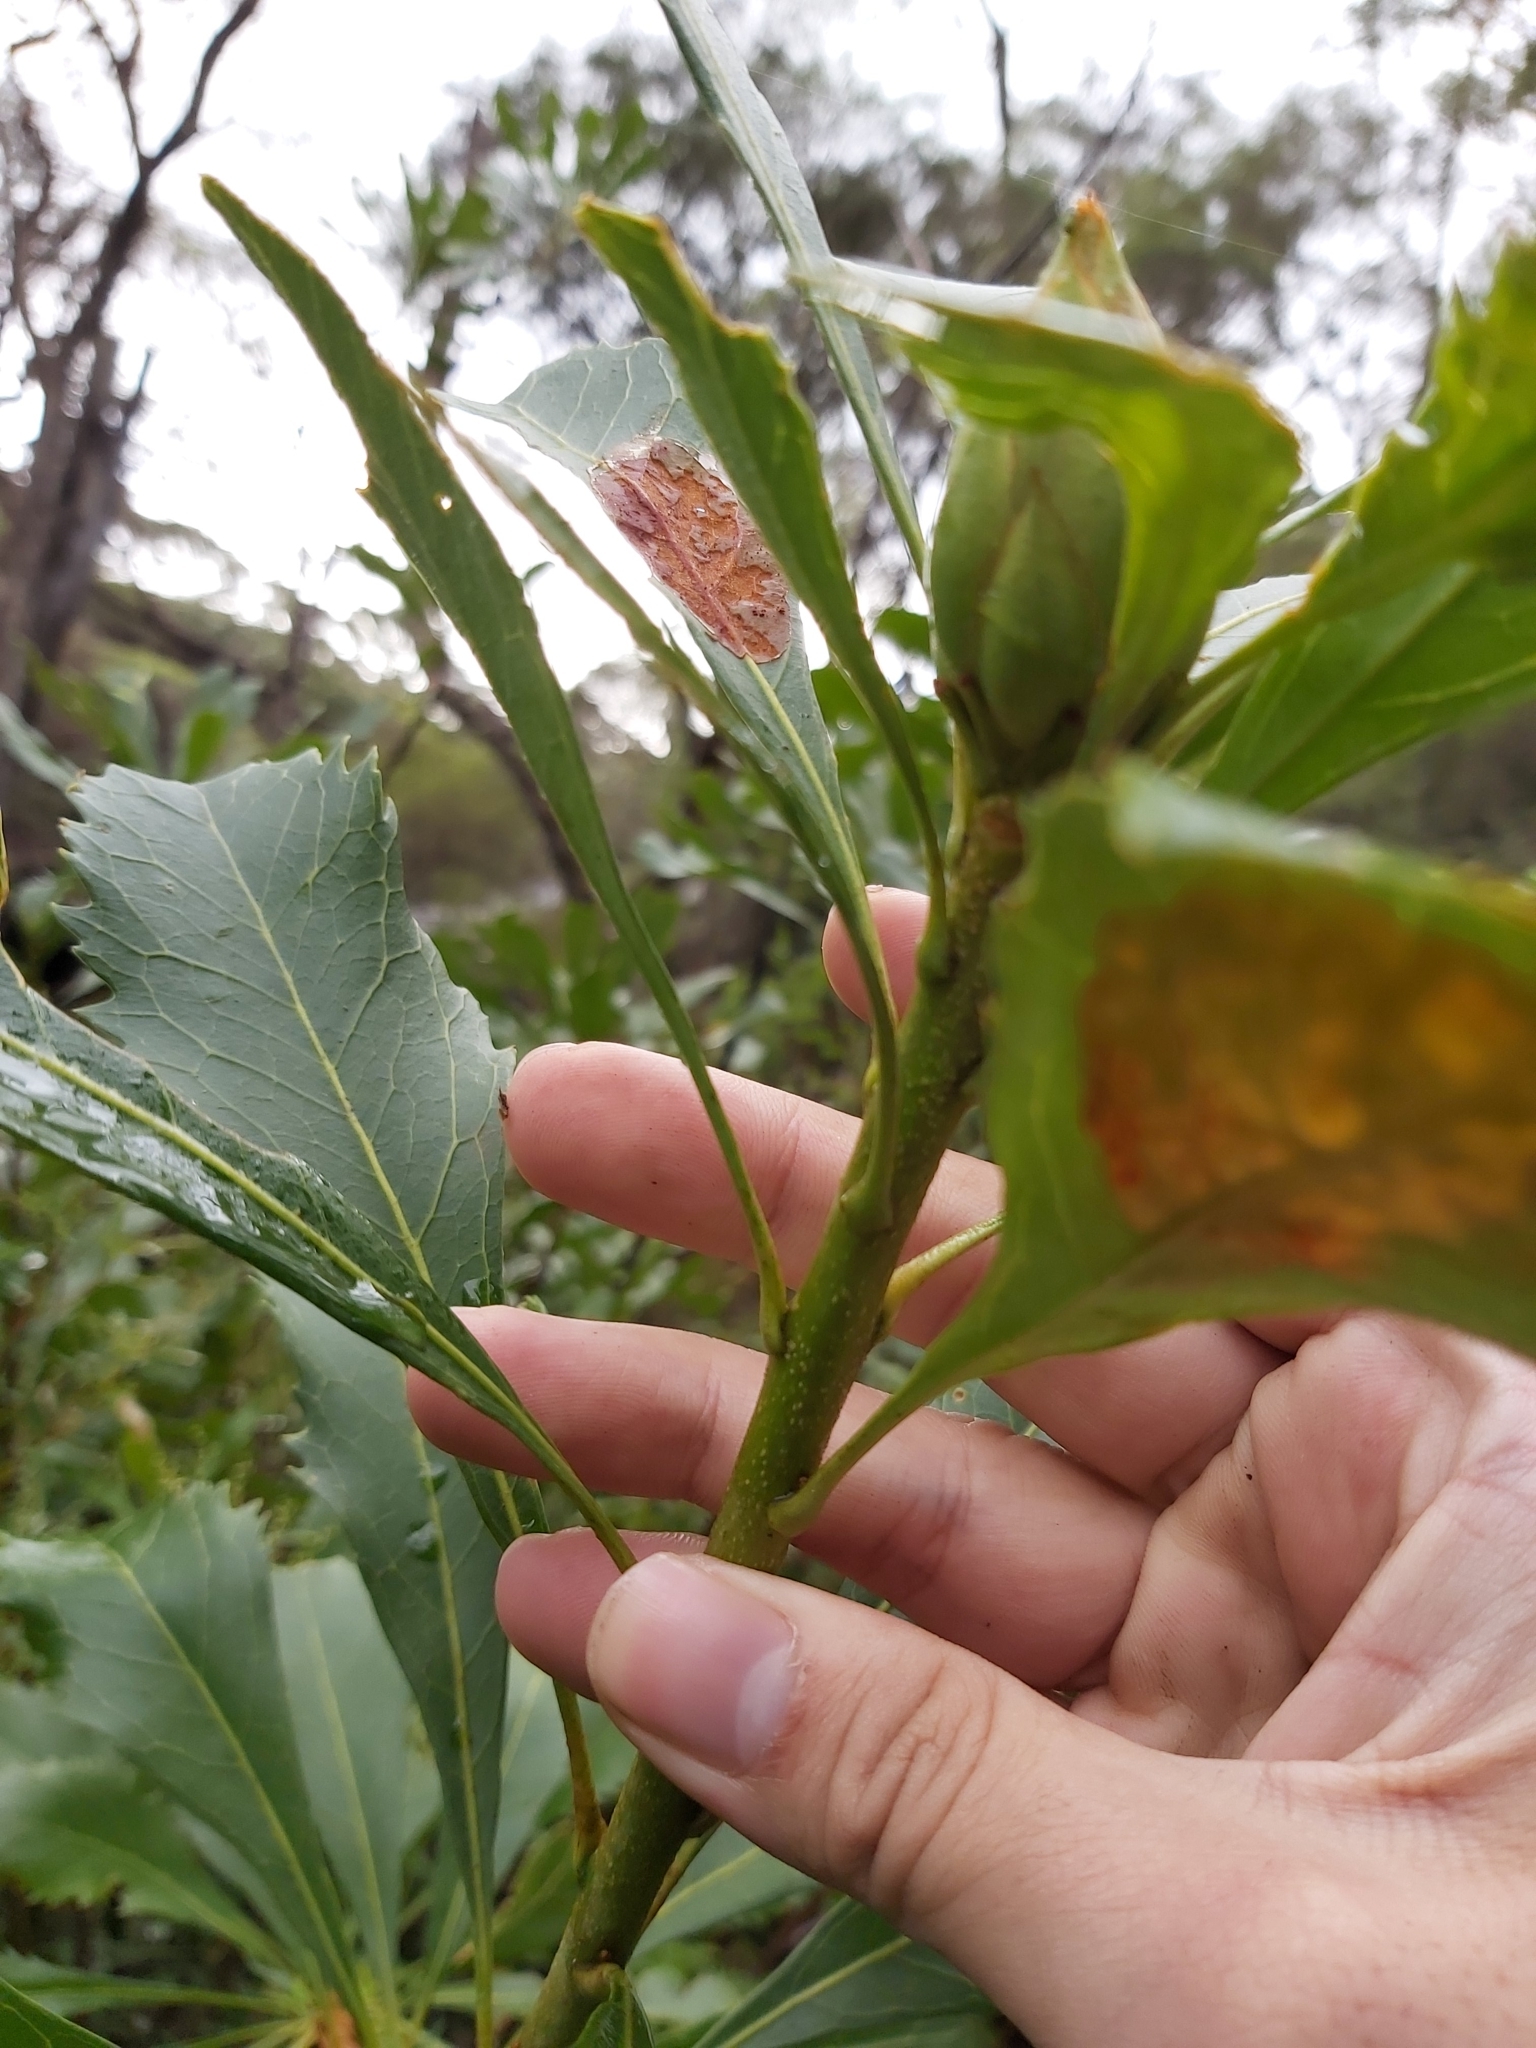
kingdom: Plantae
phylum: Tracheophyta
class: Magnoliopsida
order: Proteales
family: Proteaceae
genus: Telopea
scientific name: Telopea speciosissima
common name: New south wales waratah
